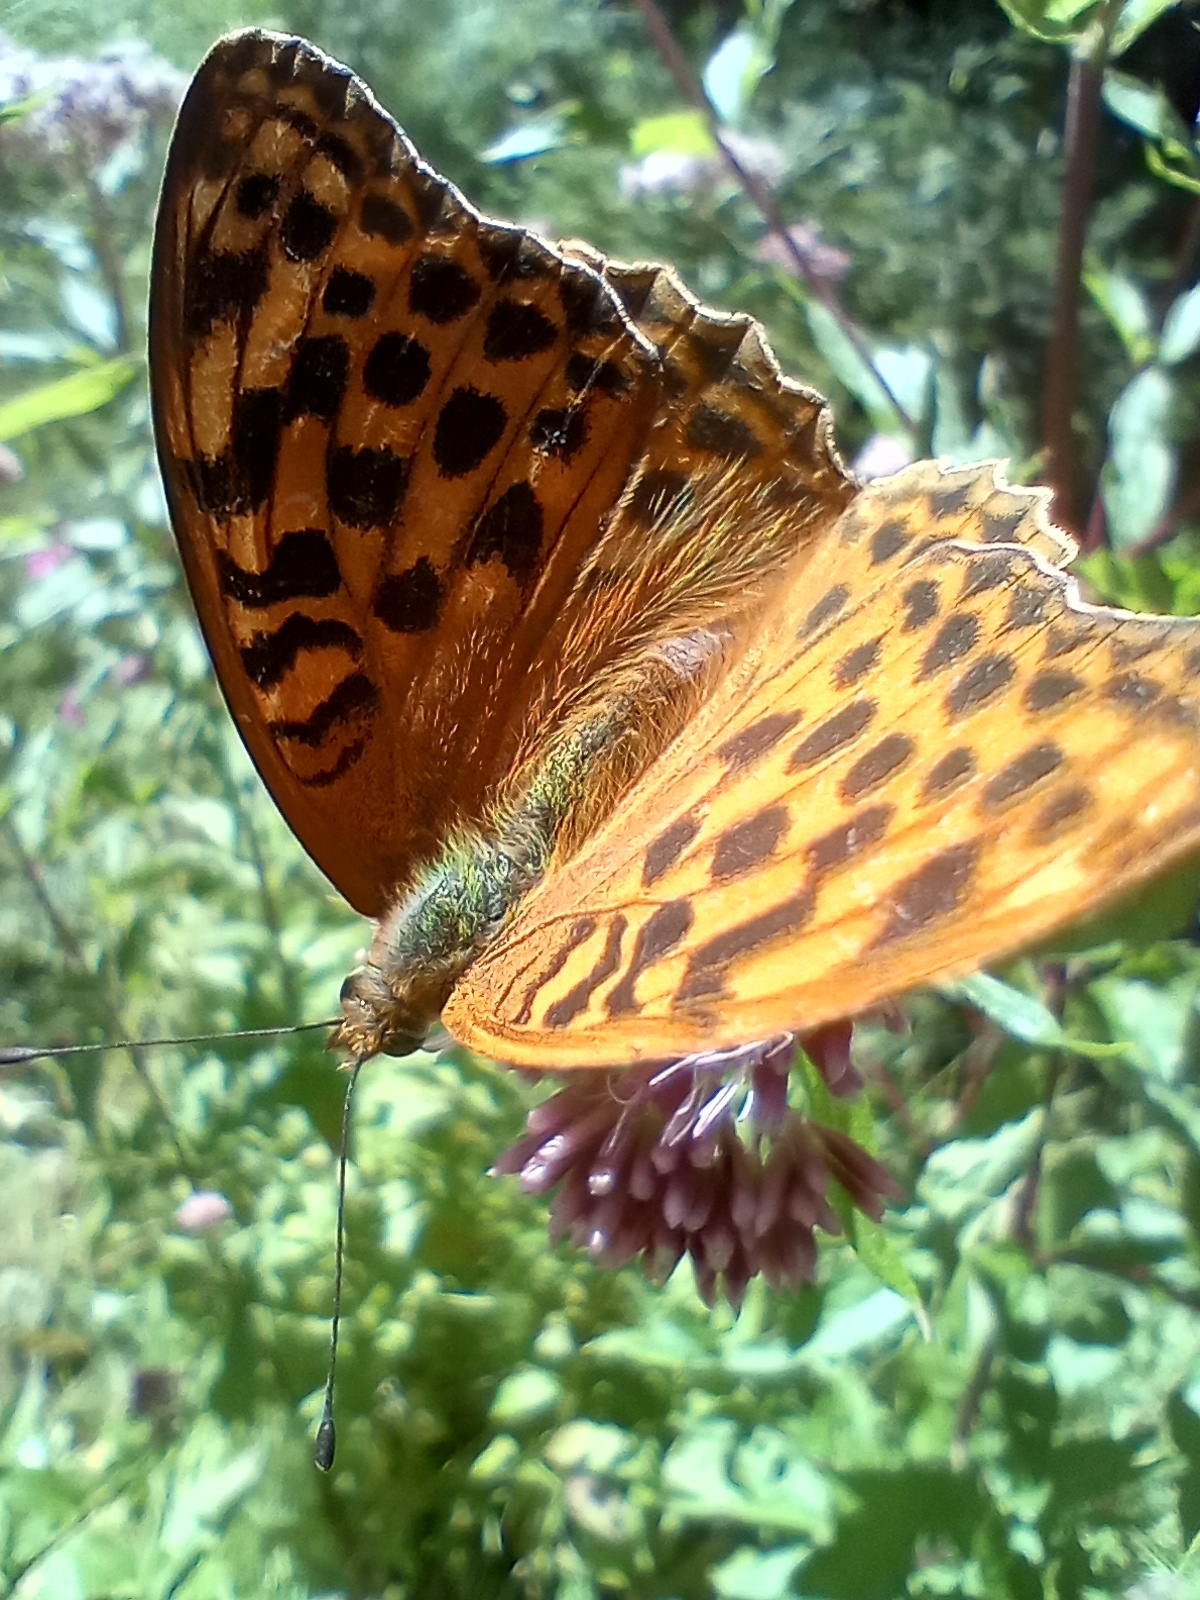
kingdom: Animalia
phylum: Arthropoda
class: Insecta
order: Lepidoptera
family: Nymphalidae
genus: Argynnis
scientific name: Argynnis paphia
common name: Silver-washed fritillary
